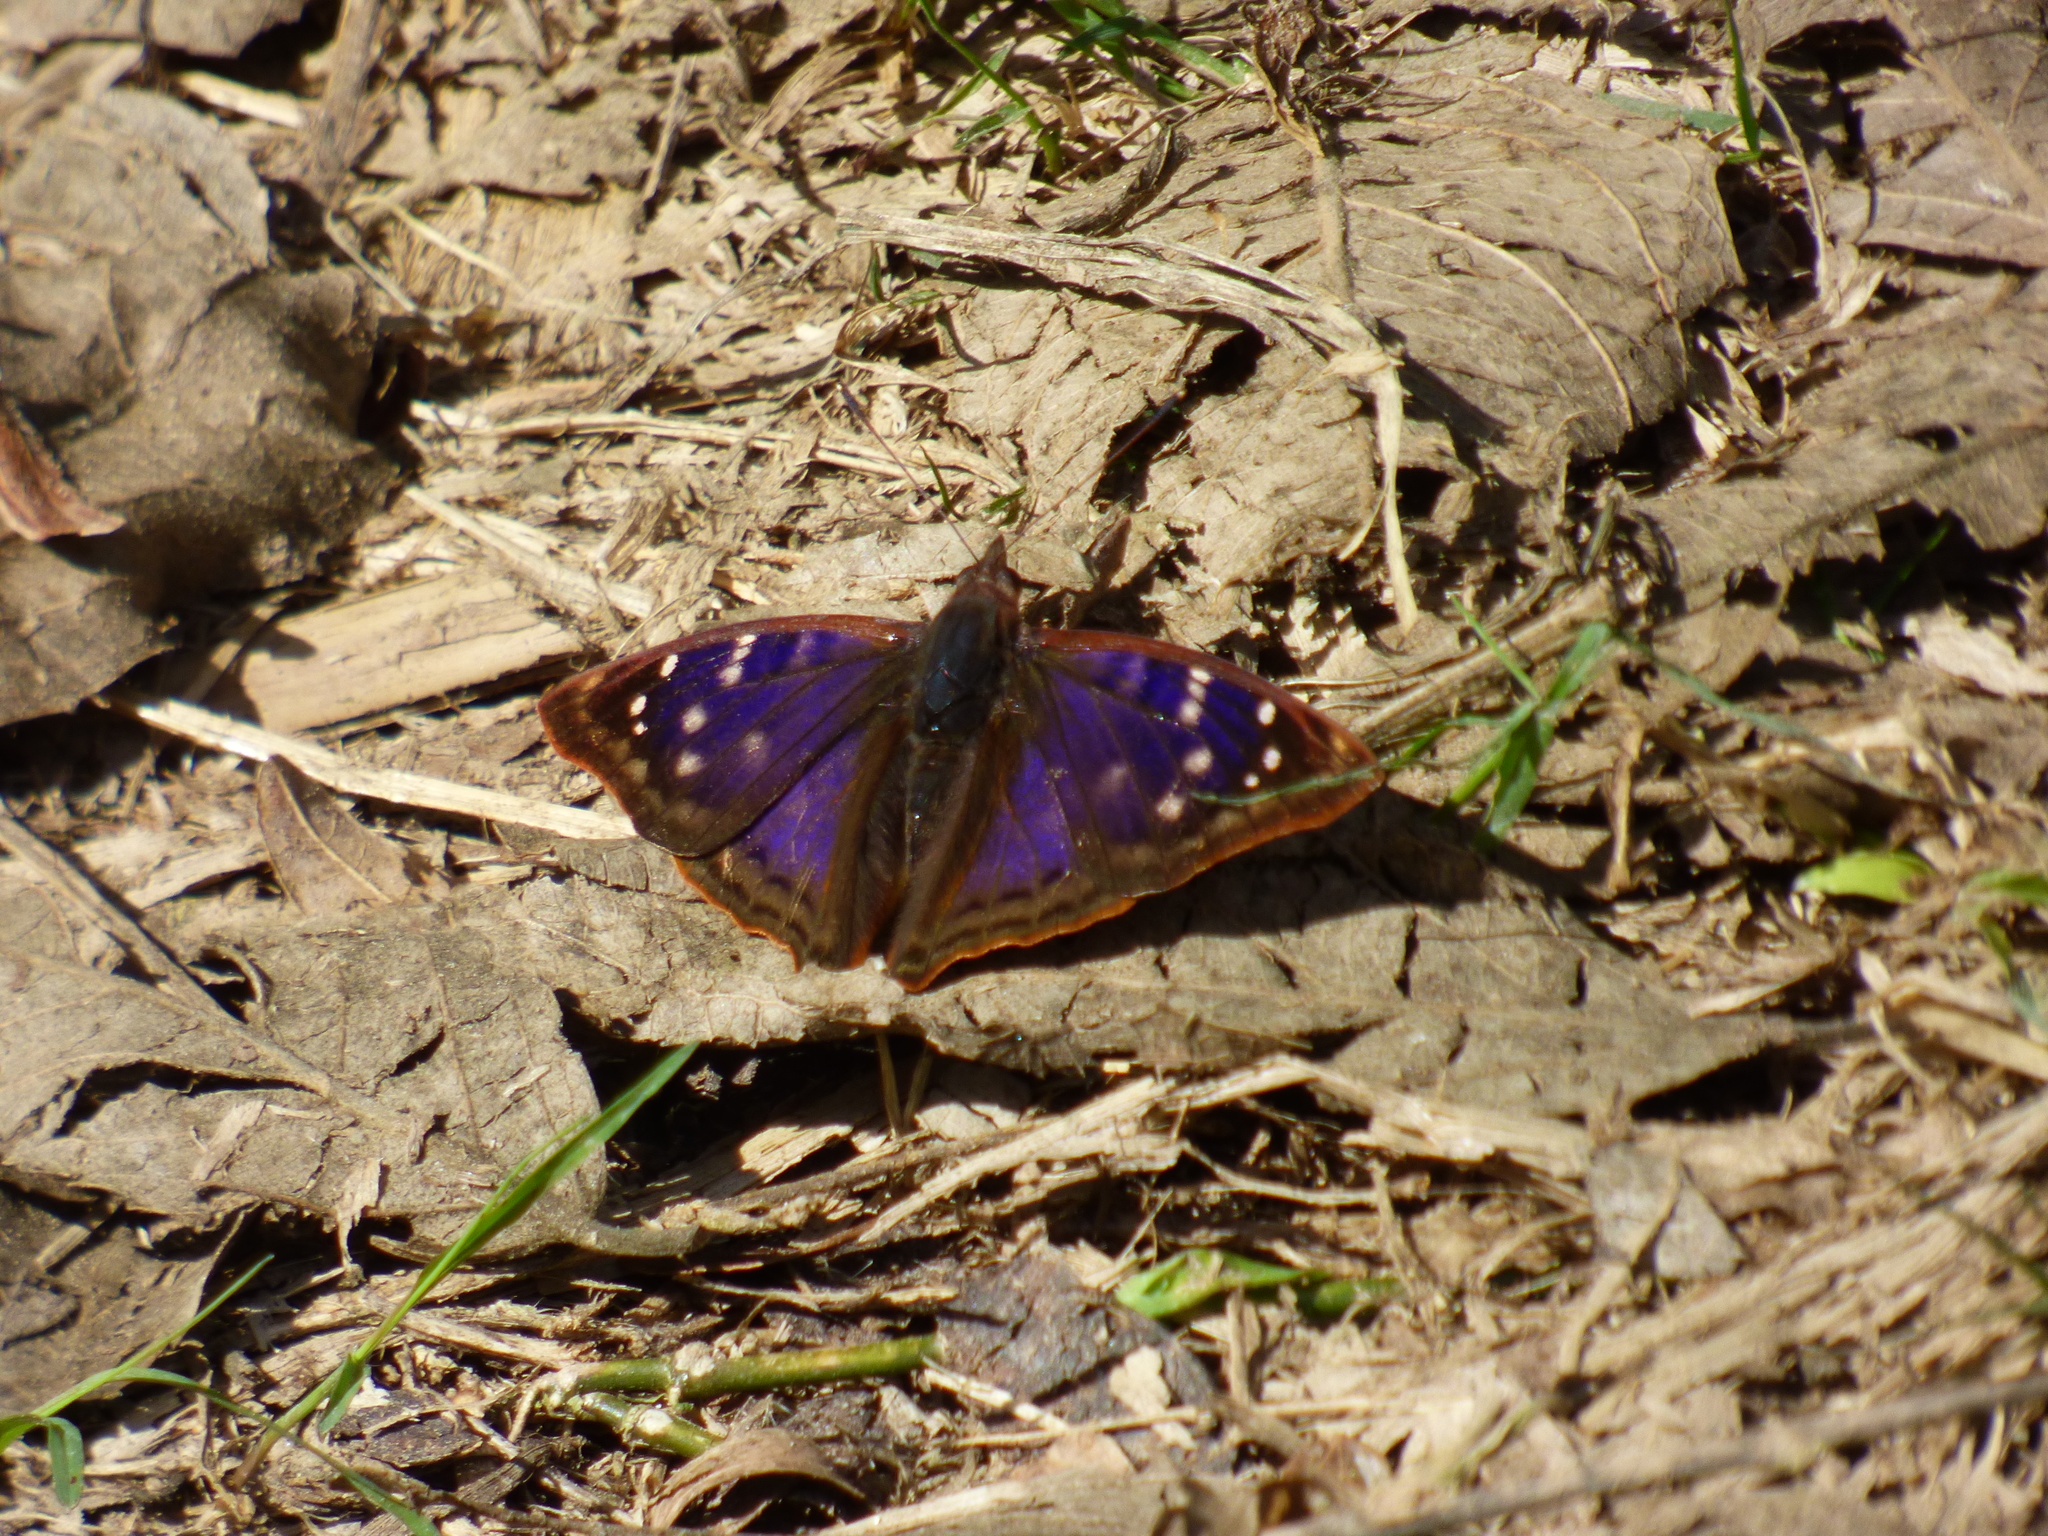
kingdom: Animalia
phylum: Arthropoda
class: Insecta
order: Lepidoptera
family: Nymphalidae
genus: Doxocopa
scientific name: Doxocopa kallina
